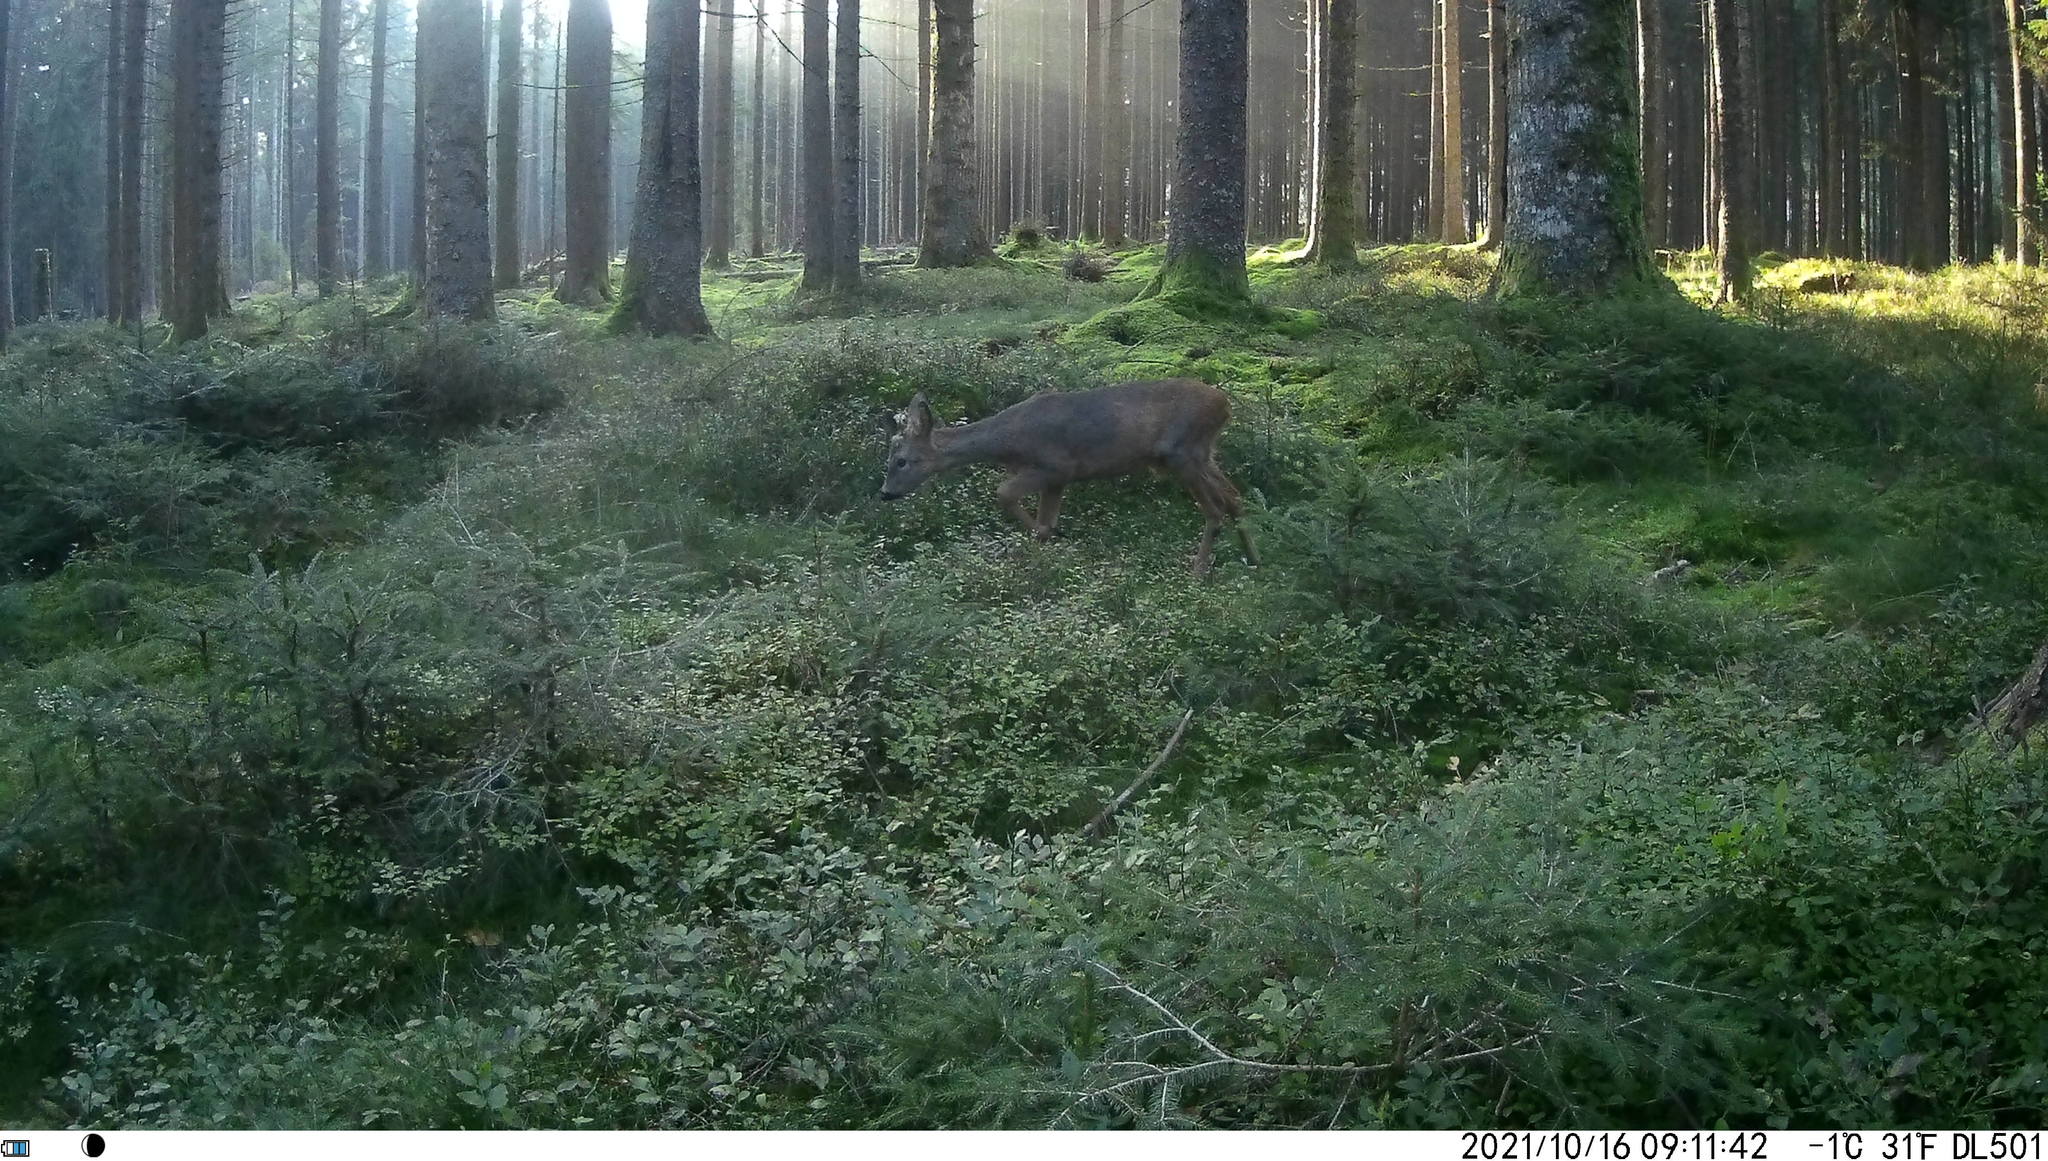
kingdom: Animalia
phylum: Chordata
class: Mammalia
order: Artiodactyla
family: Cervidae
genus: Capreolus
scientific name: Capreolus capreolus
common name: Western roe deer
